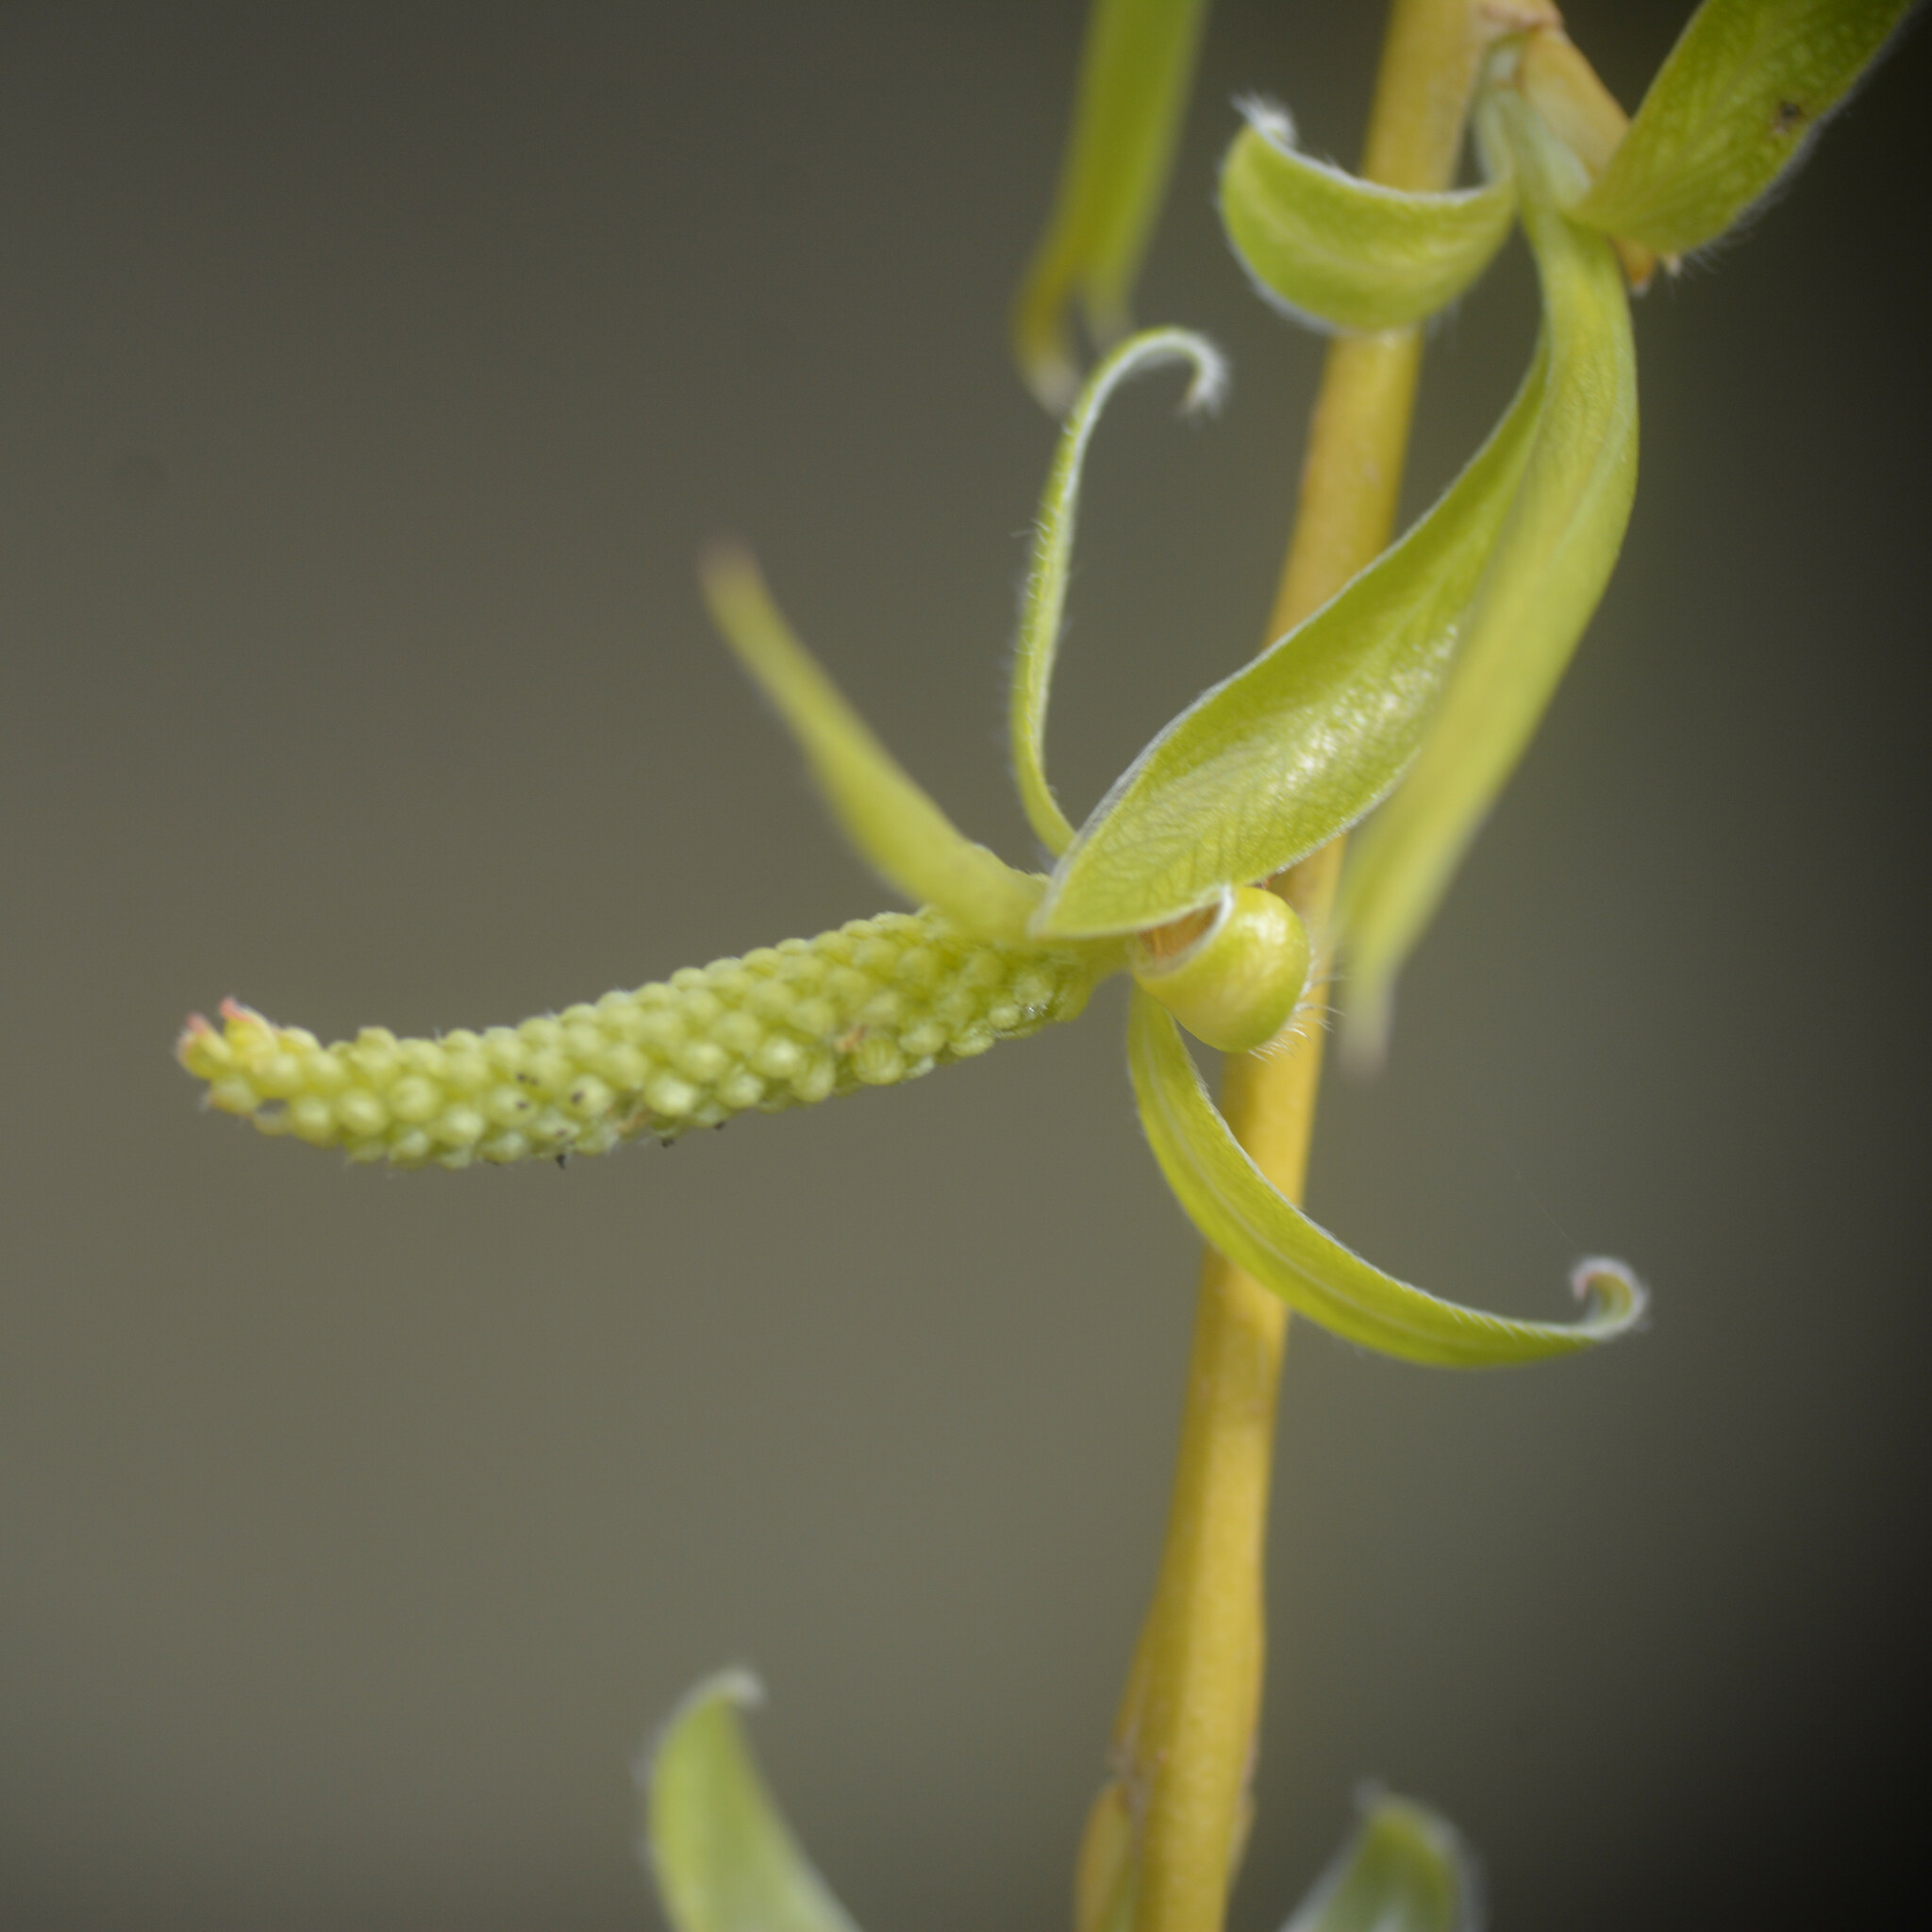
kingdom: Plantae
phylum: Tracheophyta
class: Magnoliopsida
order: Malpighiales
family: Salicaceae
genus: Salix
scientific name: Salix pendulina
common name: Wisconsin weeping willow
